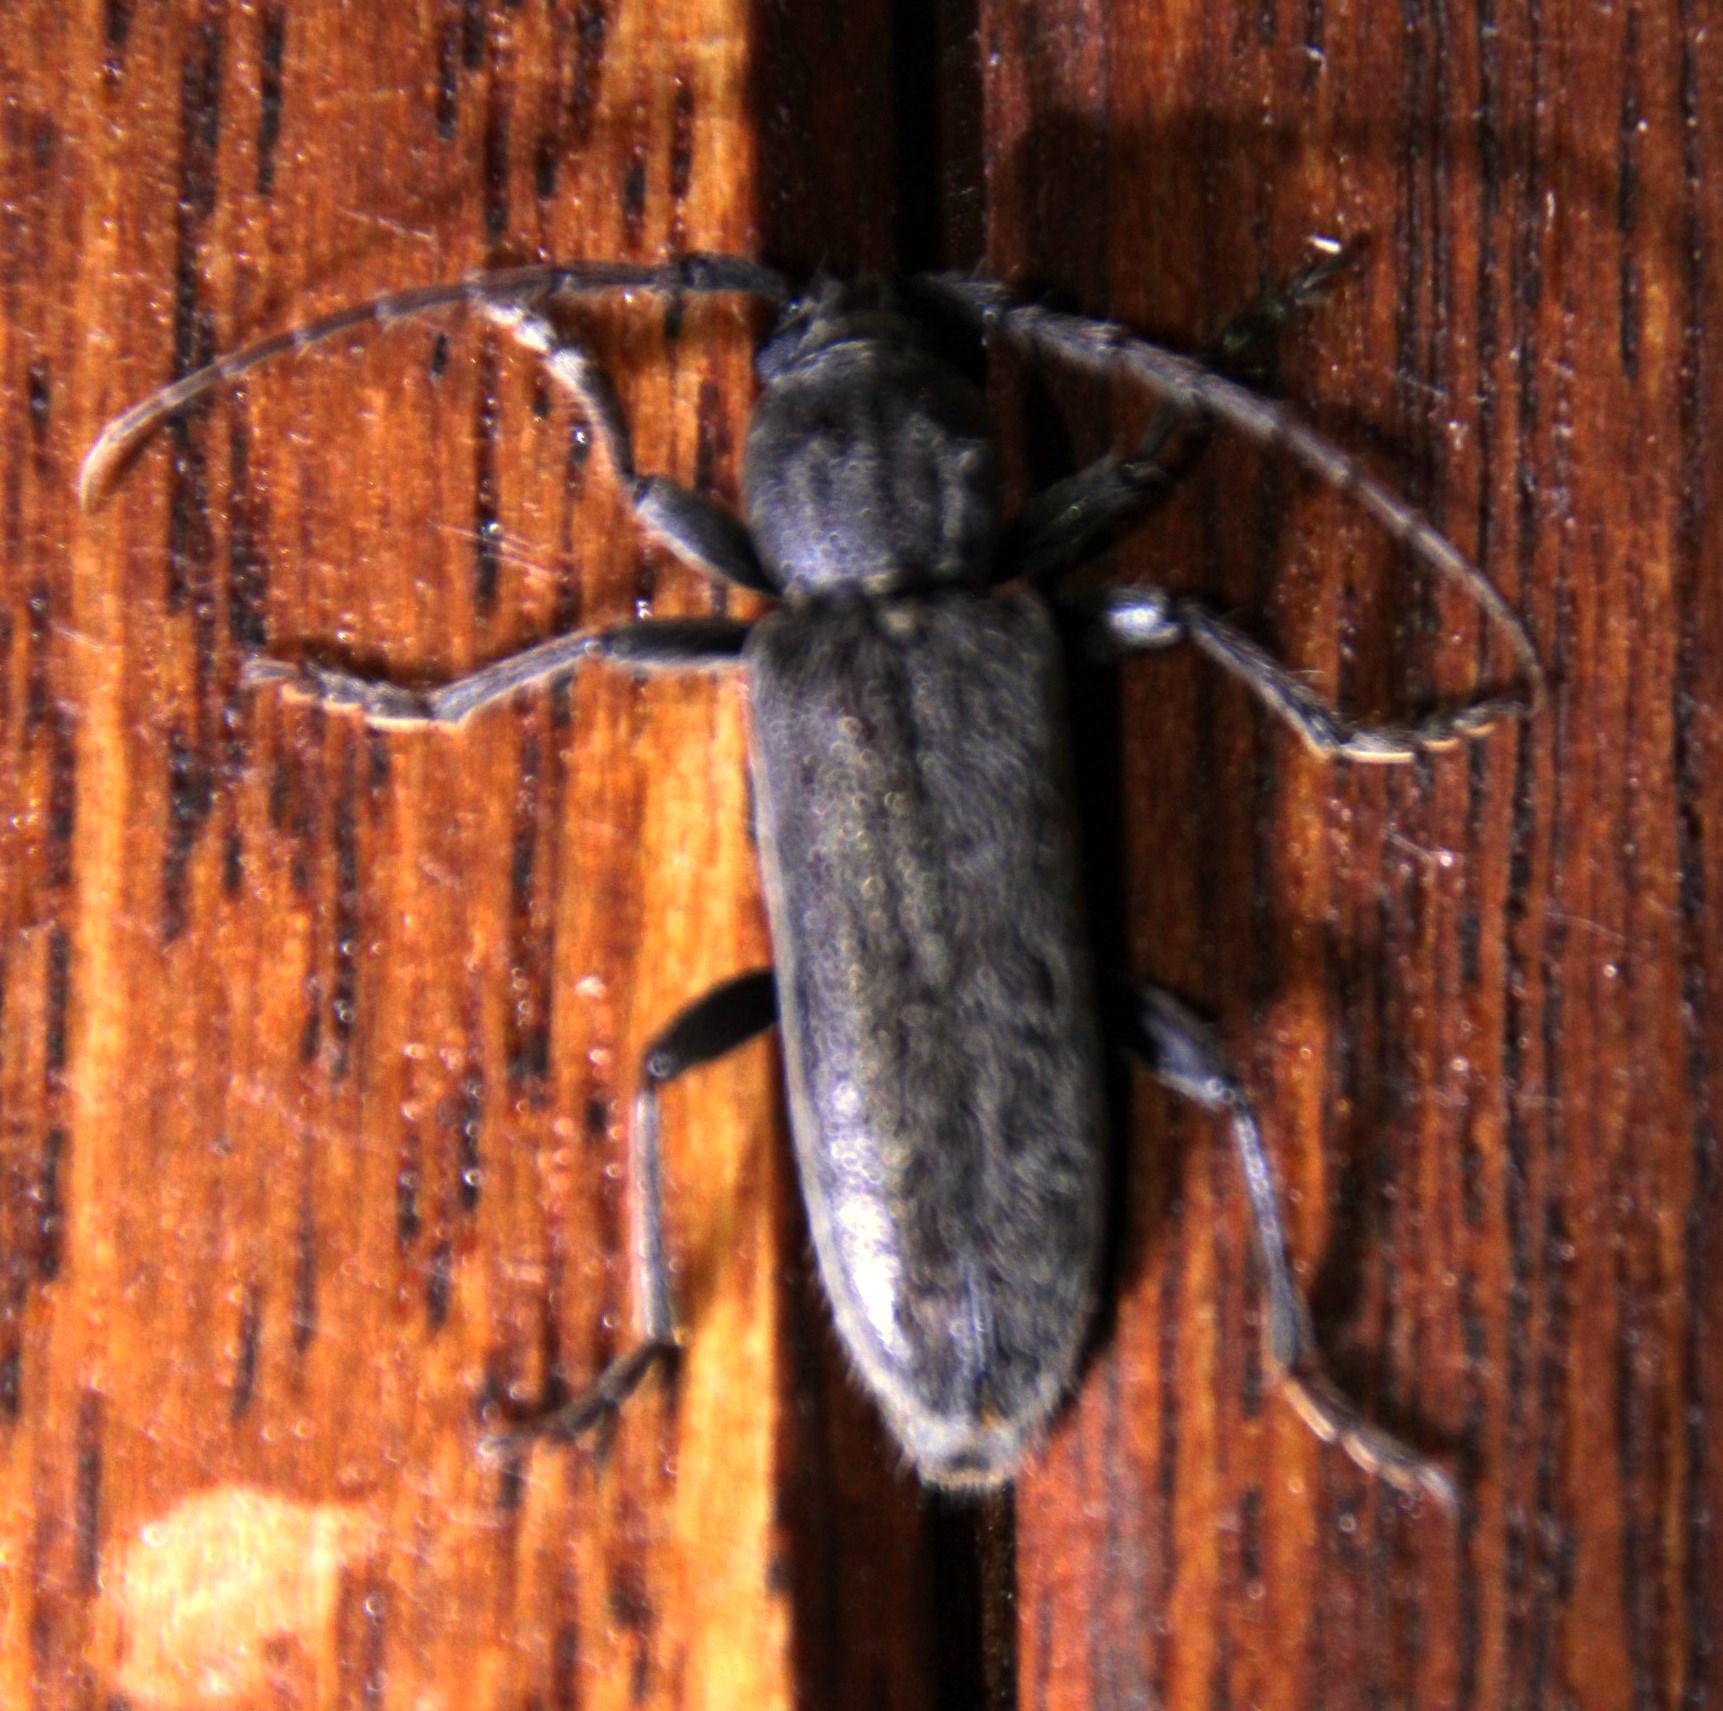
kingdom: Animalia
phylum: Arthropoda
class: Insecta
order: Coleoptera
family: Cerambycidae
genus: Garnierius
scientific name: Garnierius werneri
